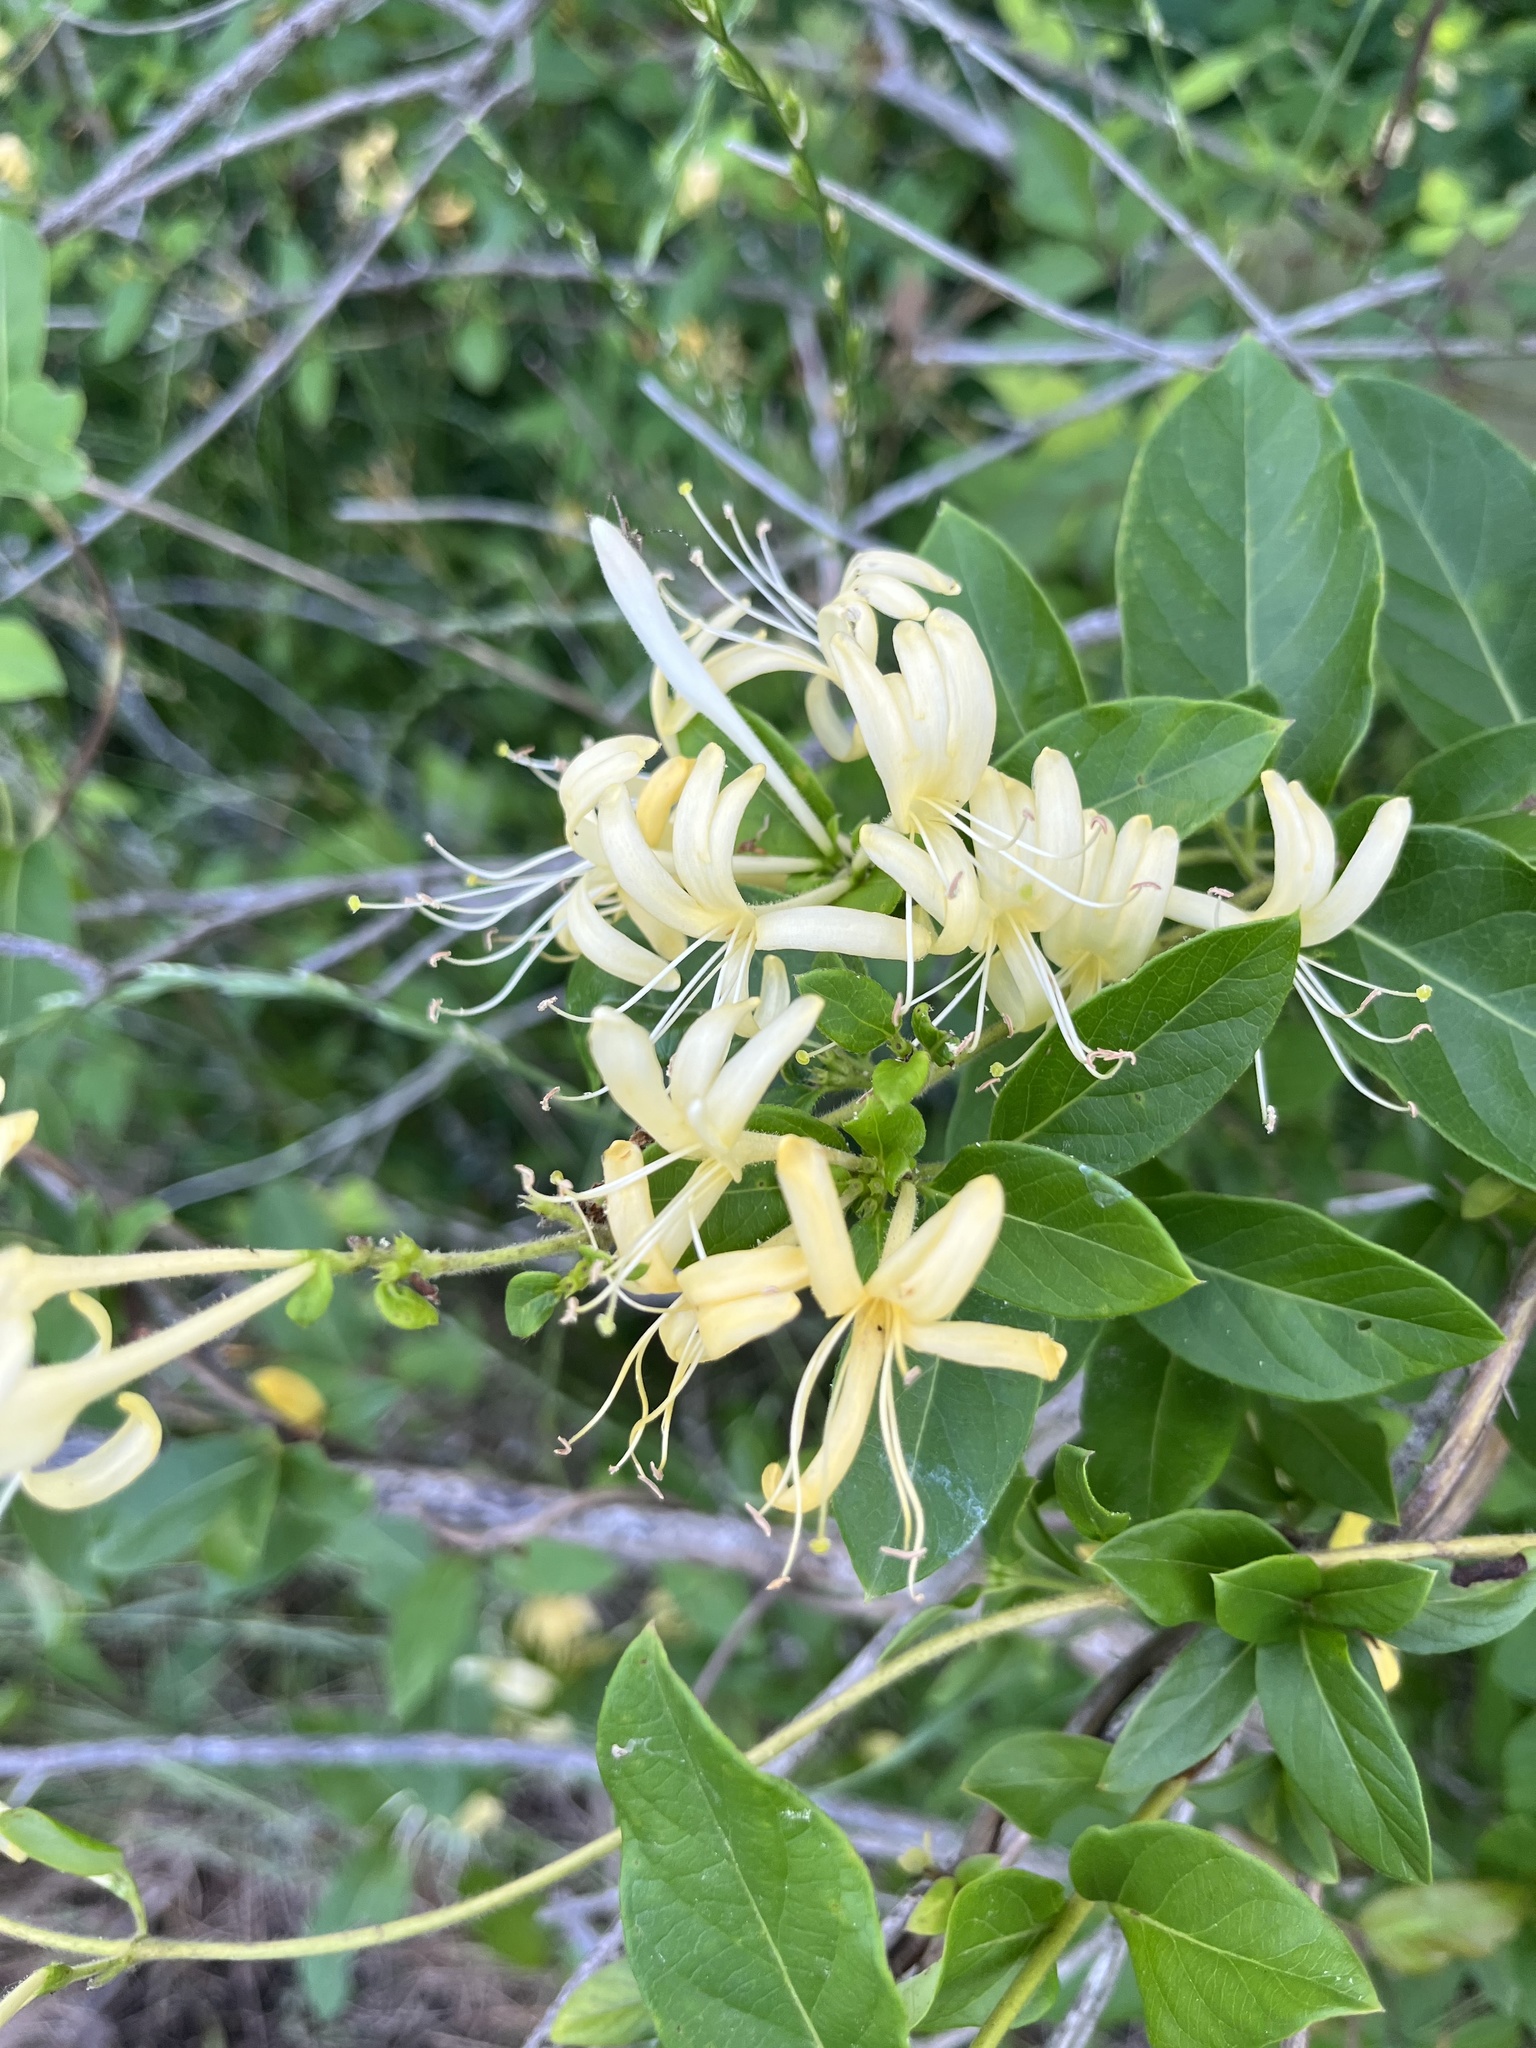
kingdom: Plantae
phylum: Tracheophyta
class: Magnoliopsida
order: Dipsacales
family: Caprifoliaceae
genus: Lonicera
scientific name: Lonicera japonica
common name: Japanese honeysuckle
